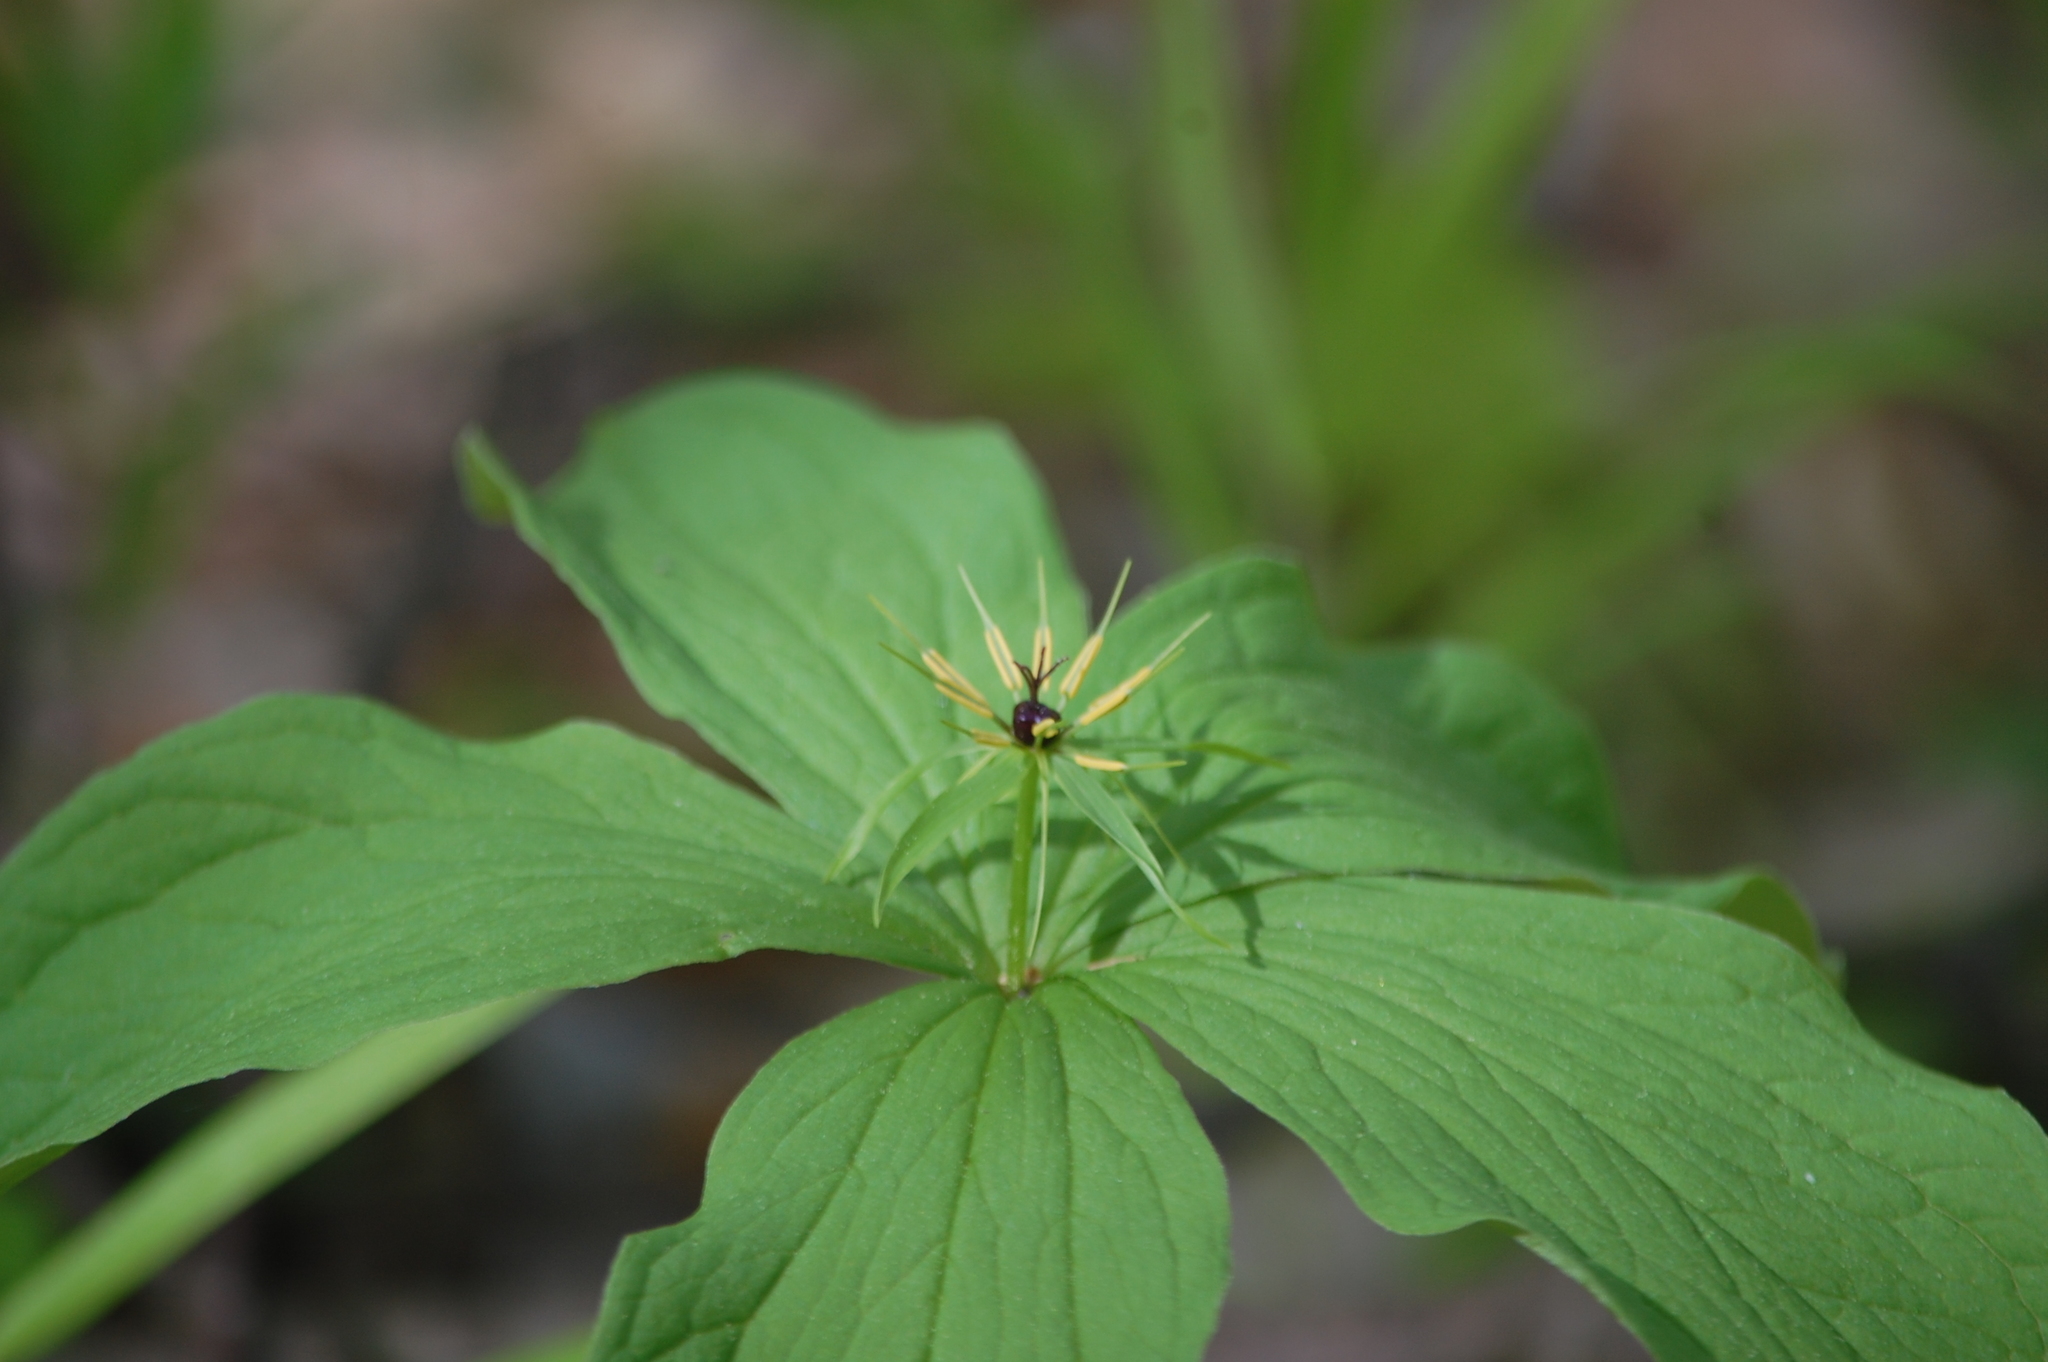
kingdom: Plantae
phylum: Tracheophyta
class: Liliopsida
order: Liliales
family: Melanthiaceae
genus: Paris
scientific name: Paris quadrifolia
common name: Herb-paris
